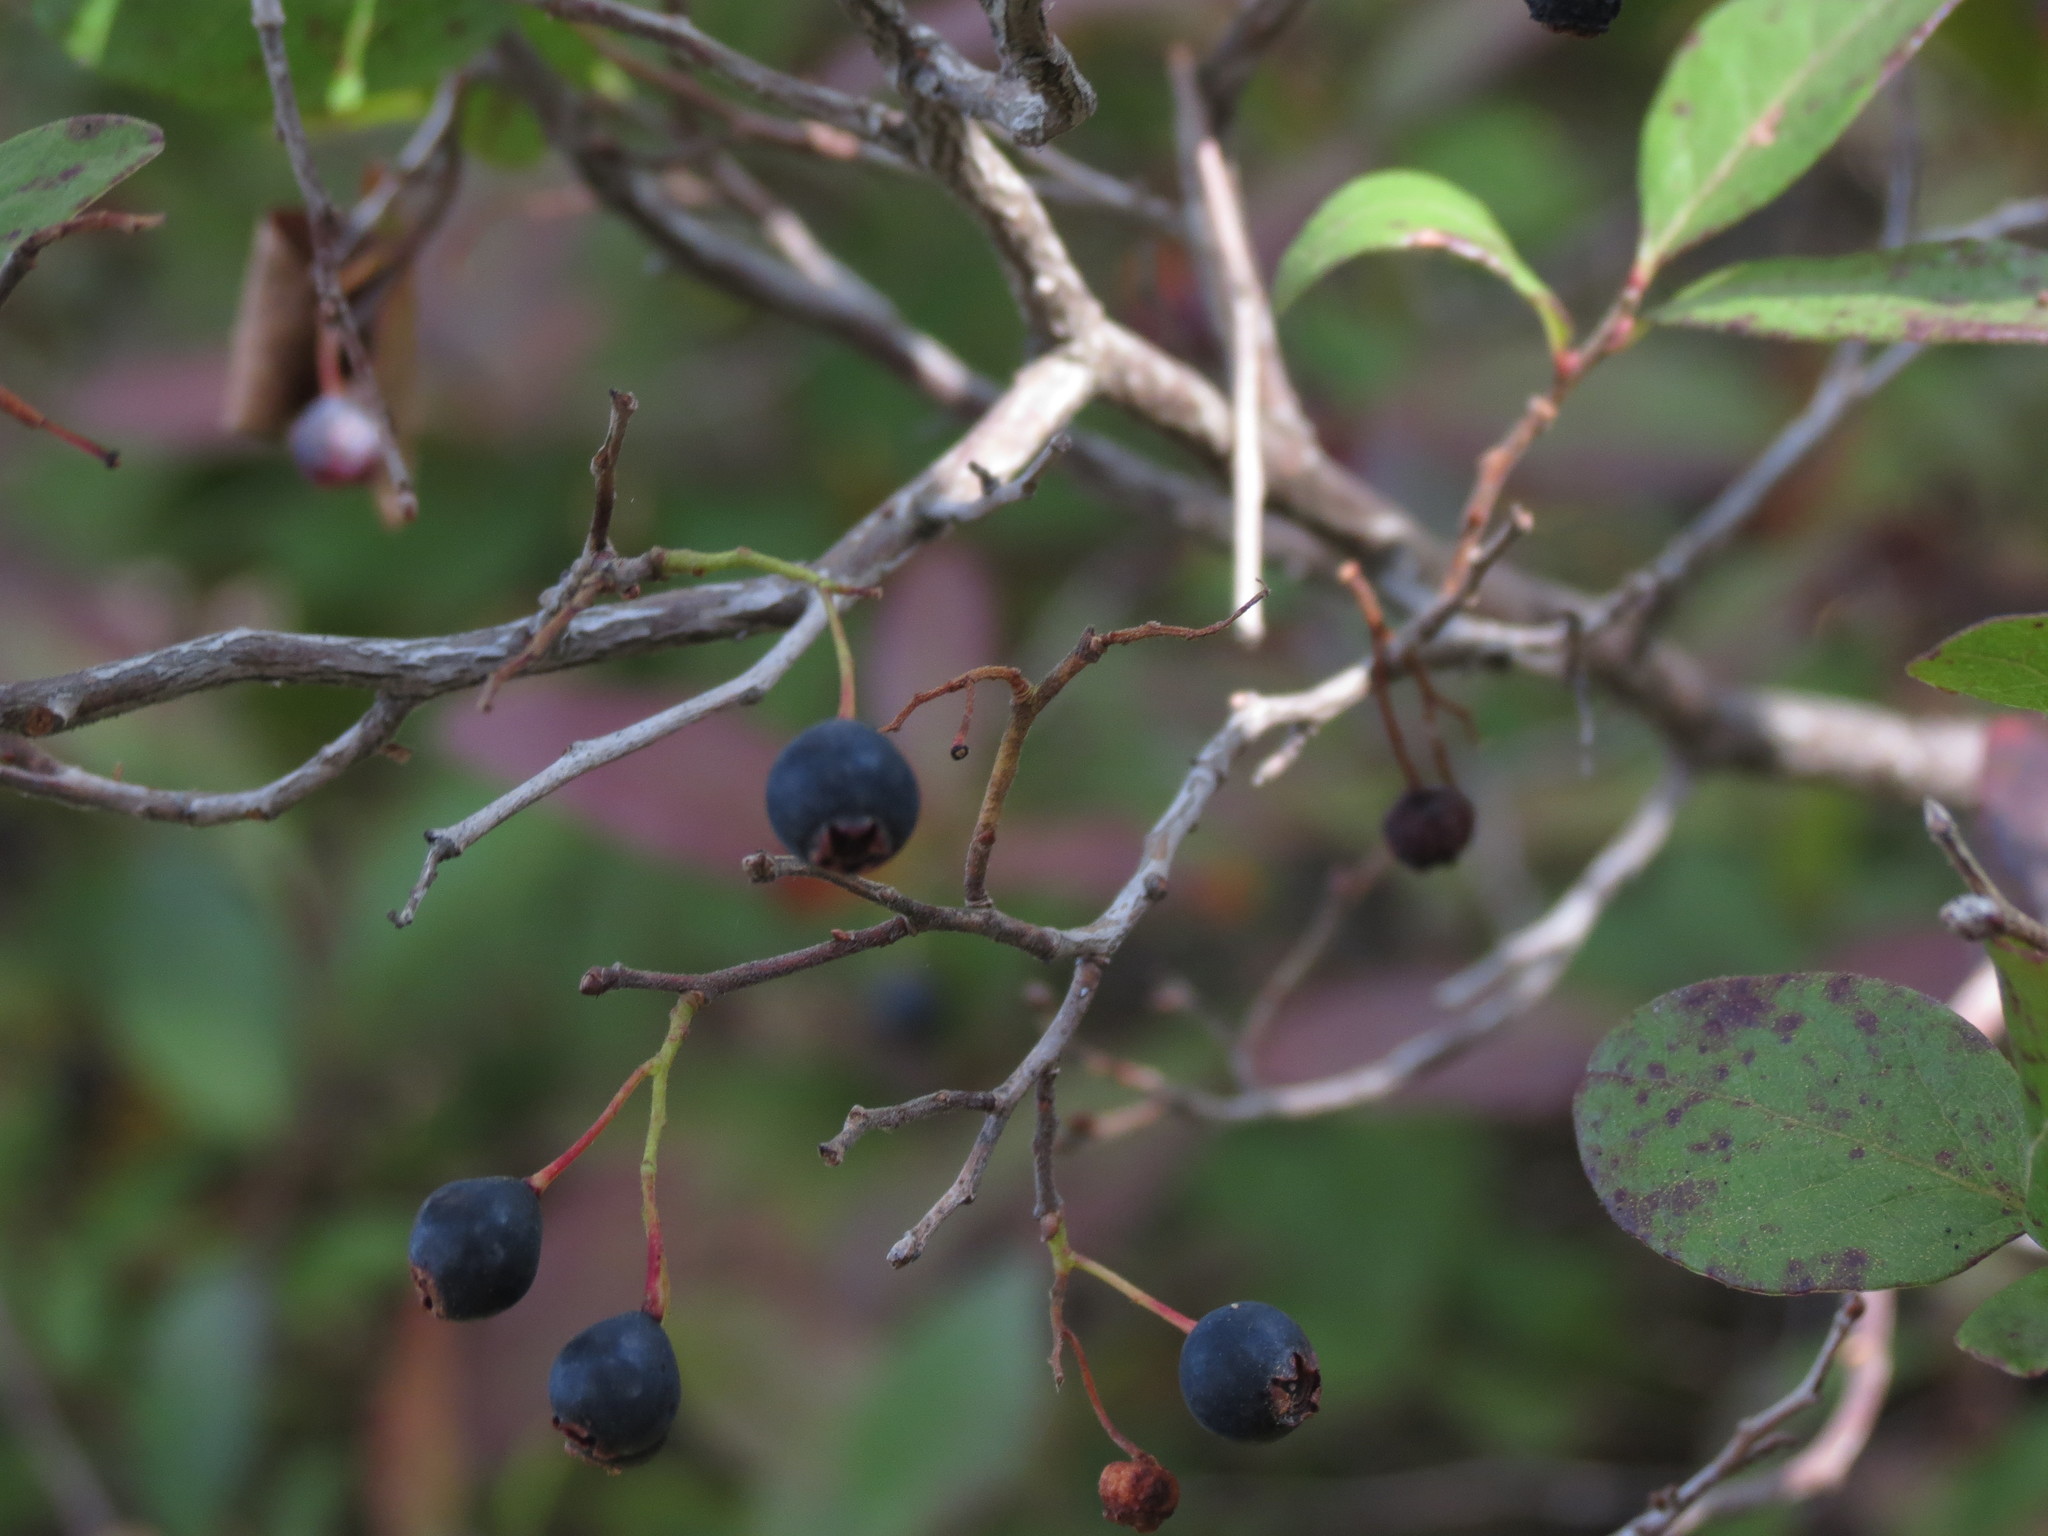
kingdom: Plantae
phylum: Tracheophyta
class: Magnoliopsida
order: Ericales
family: Ericaceae
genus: Gaylussacia
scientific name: Gaylussacia baccata
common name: Black huckleberry
